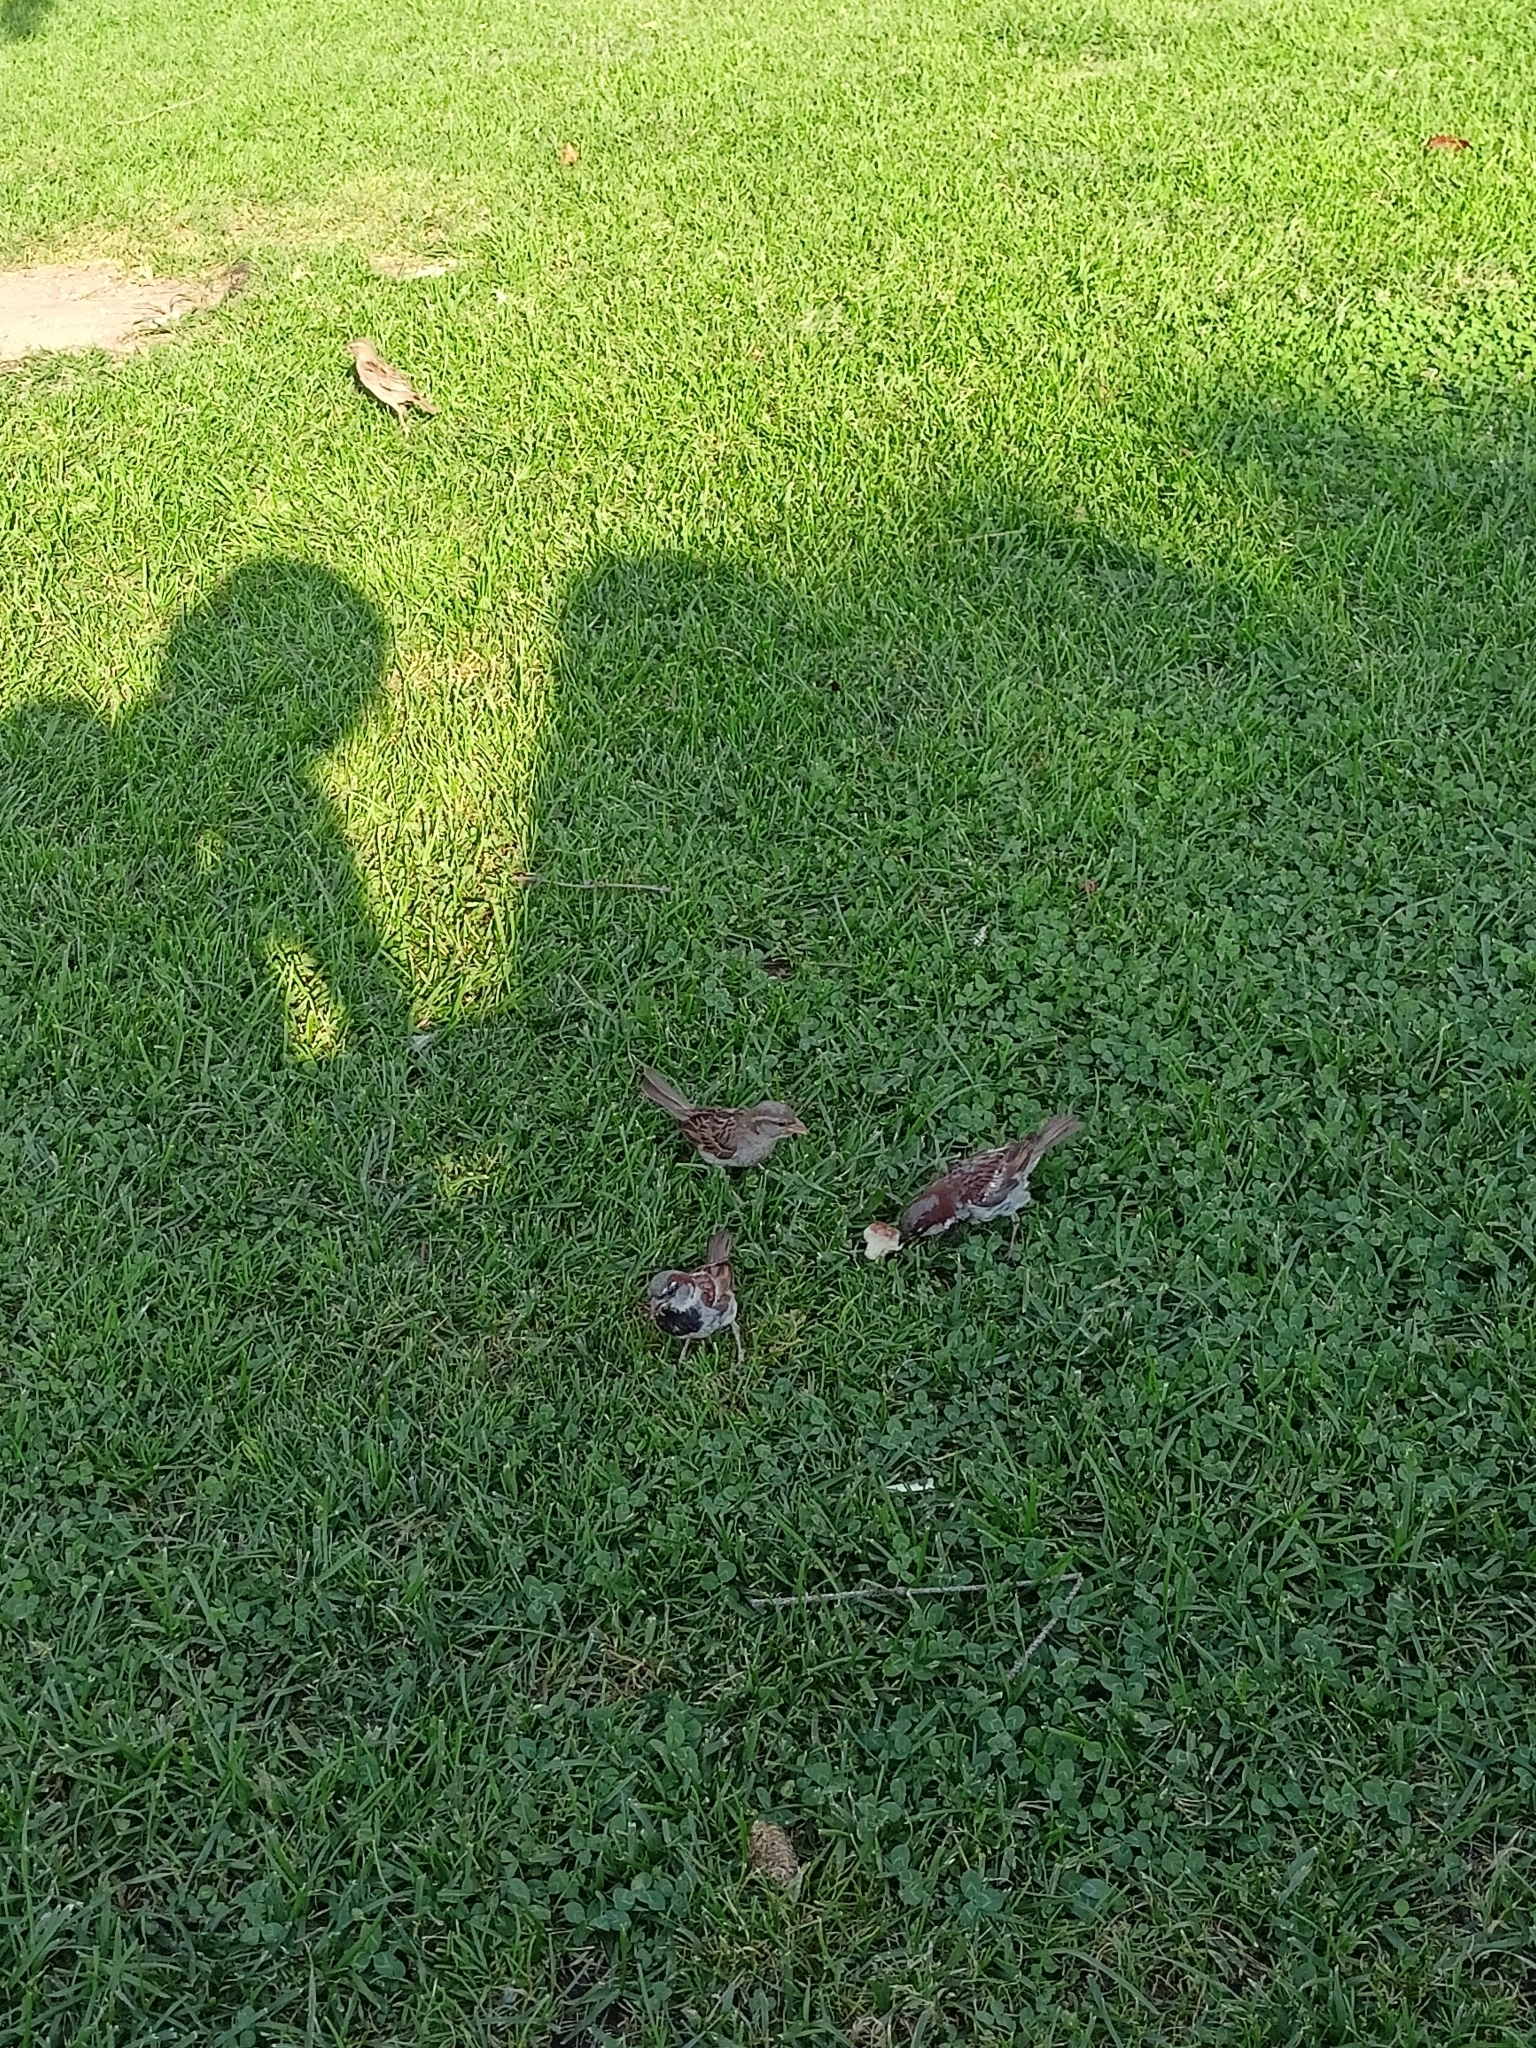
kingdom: Animalia
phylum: Chordata
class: Aves
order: Passeriformes
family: Passeridae
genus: Passer
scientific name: Passer domesticus
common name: House sparrow
